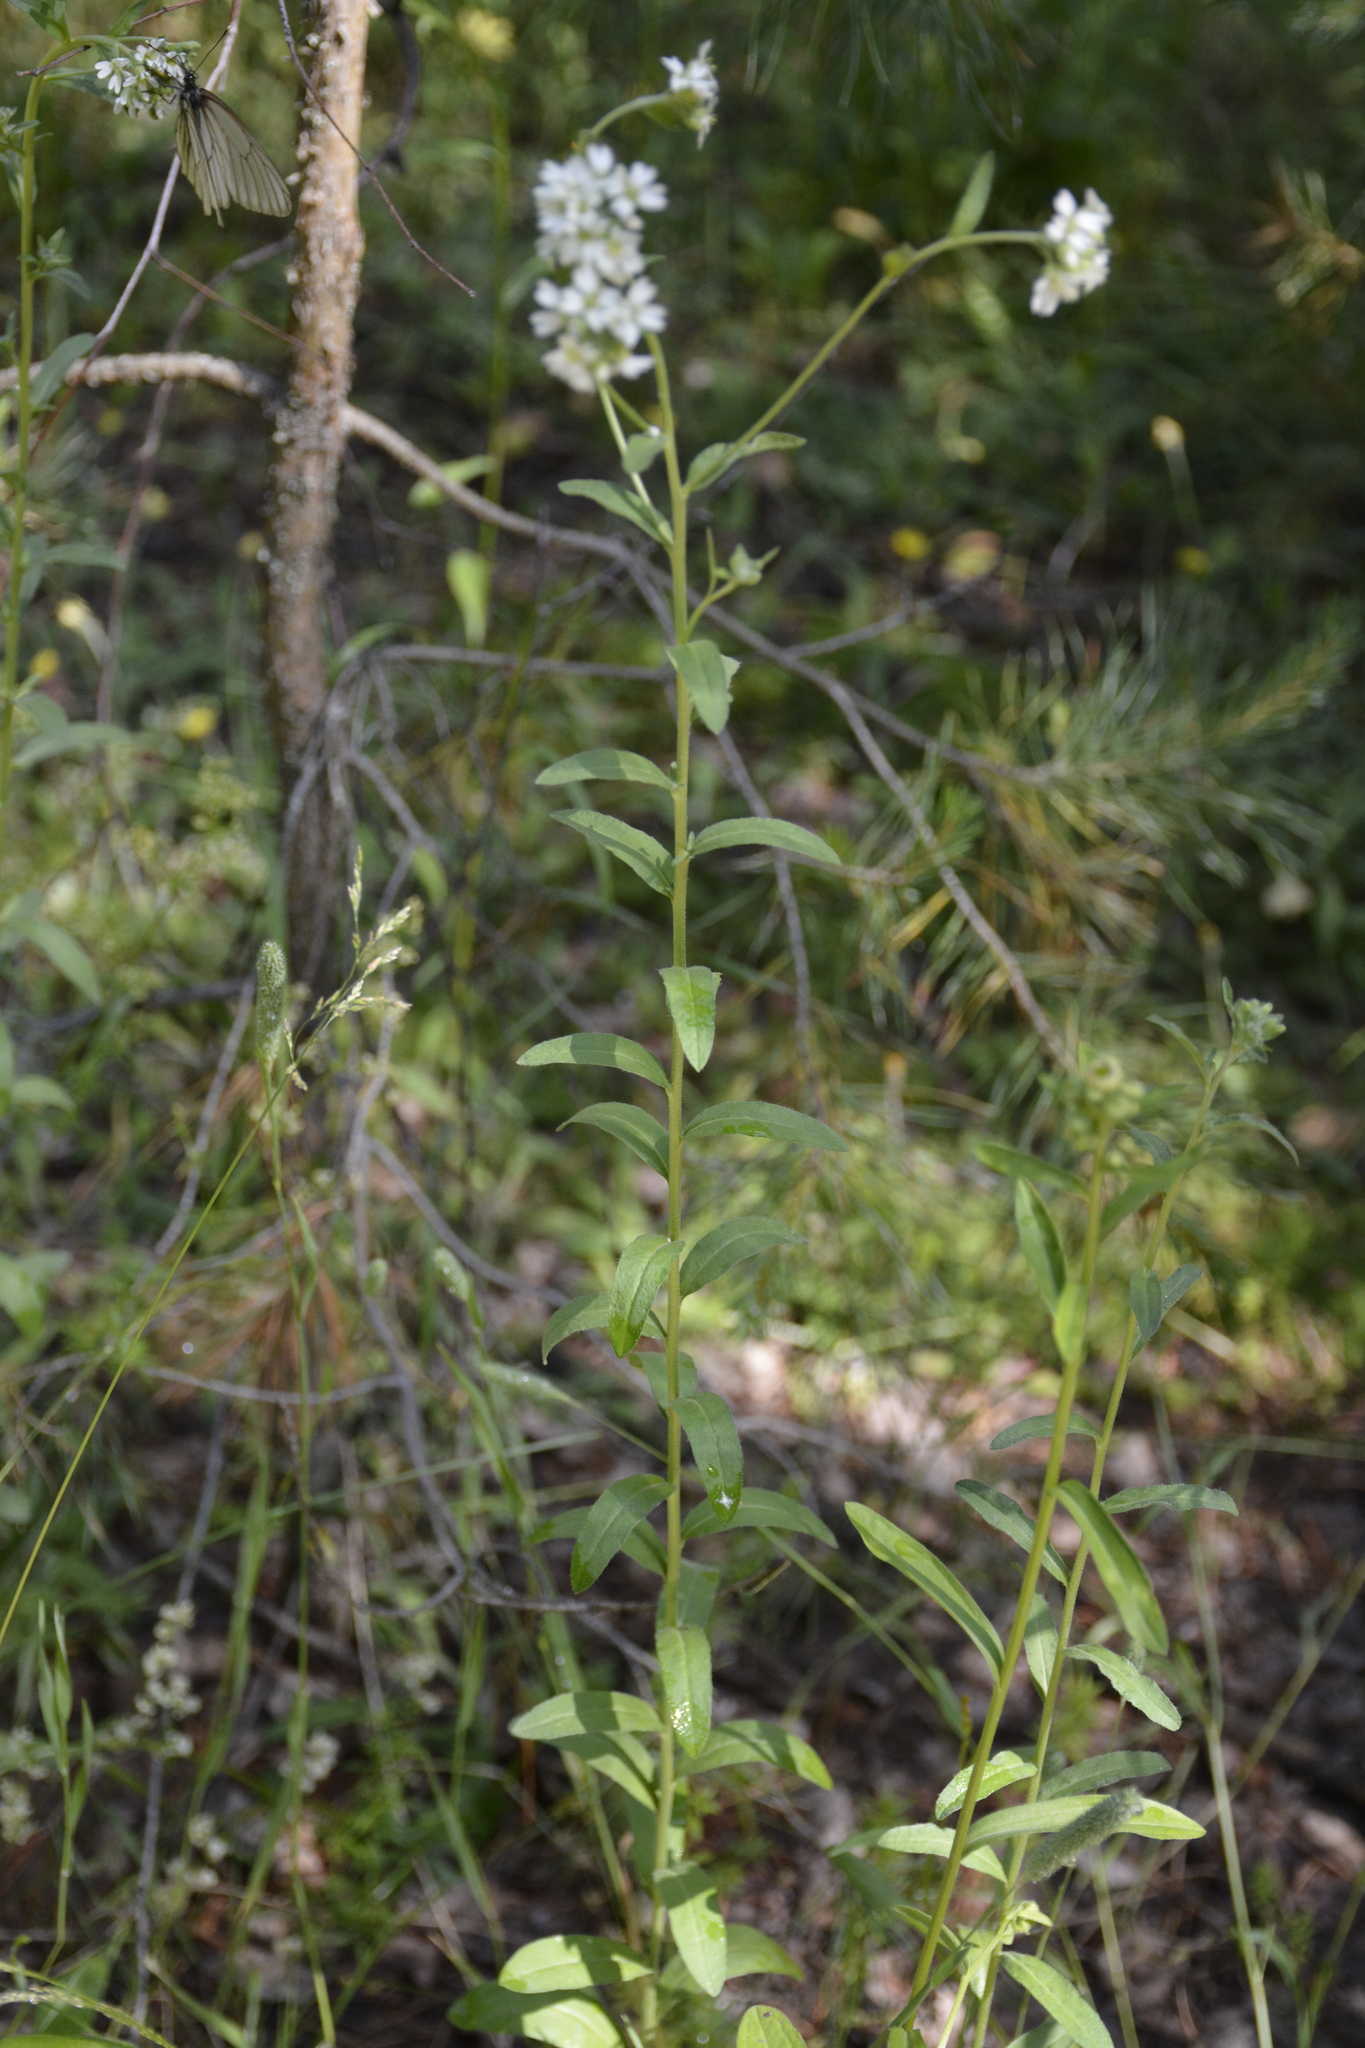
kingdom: Plantae
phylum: Tracheophyta
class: Magnoliopsida
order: Brassicales
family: Brassicaceae
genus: Berteroa
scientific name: Berteroa incana
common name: Hoary alison
